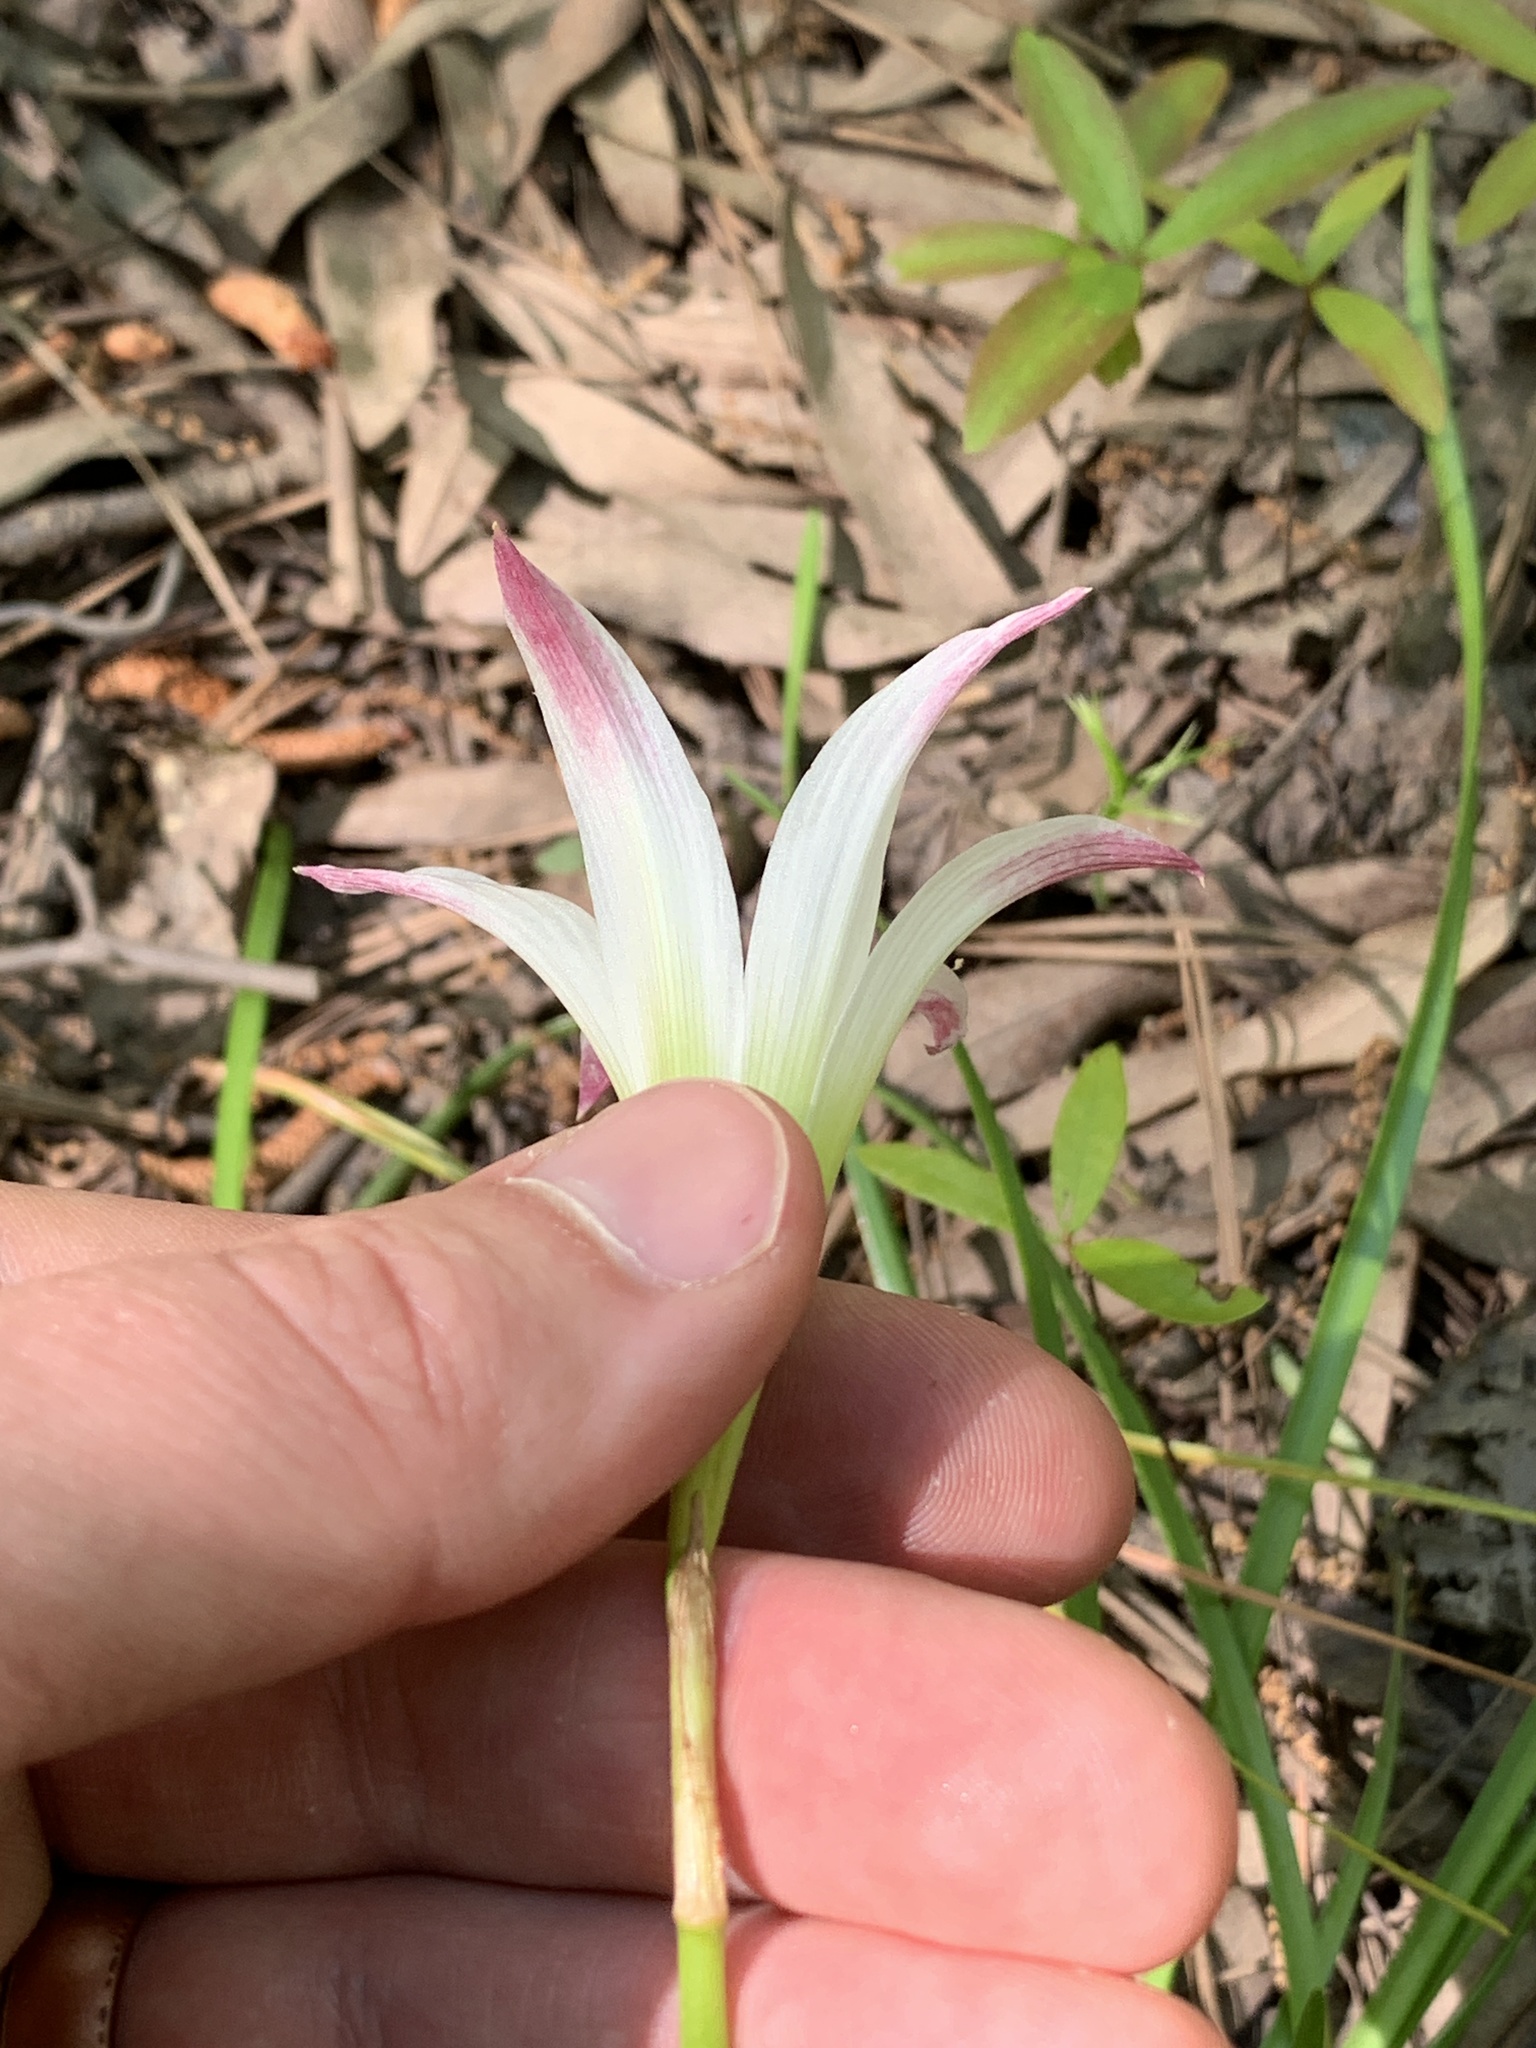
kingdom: Plantae
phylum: Tracheophyta
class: Liliopsida
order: Asparagales
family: Amaryllidaceae
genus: Zephyranthes
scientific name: Zephyranthes atamasco
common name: Atamasco lily
